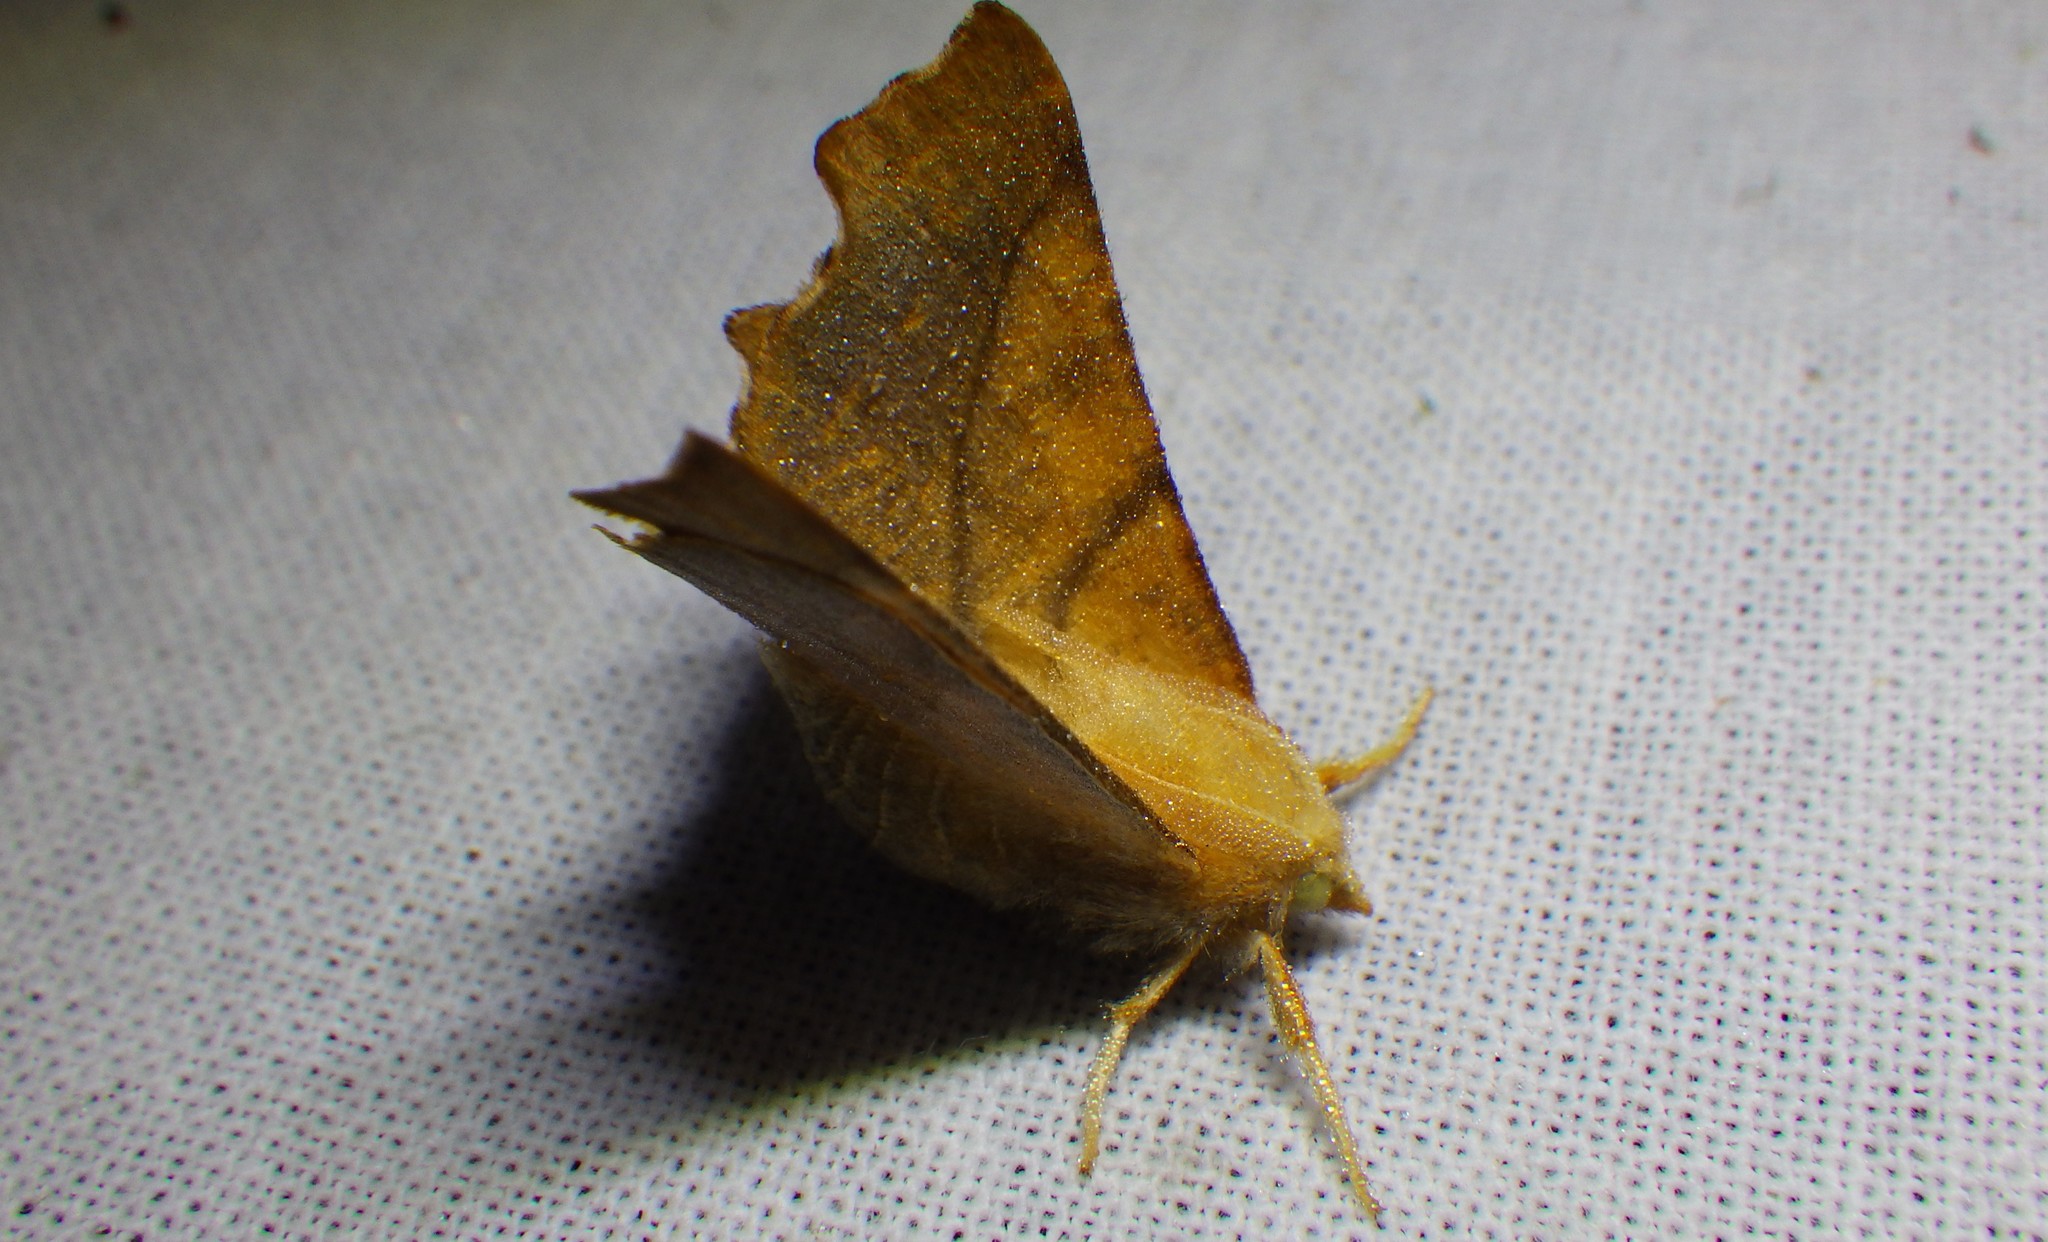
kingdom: Animalia
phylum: Arthropoda
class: Insecta
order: Lepidoptera
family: Geometridae
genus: Ennomos
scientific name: Ennomos fuscantaria
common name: Dusky thorn
